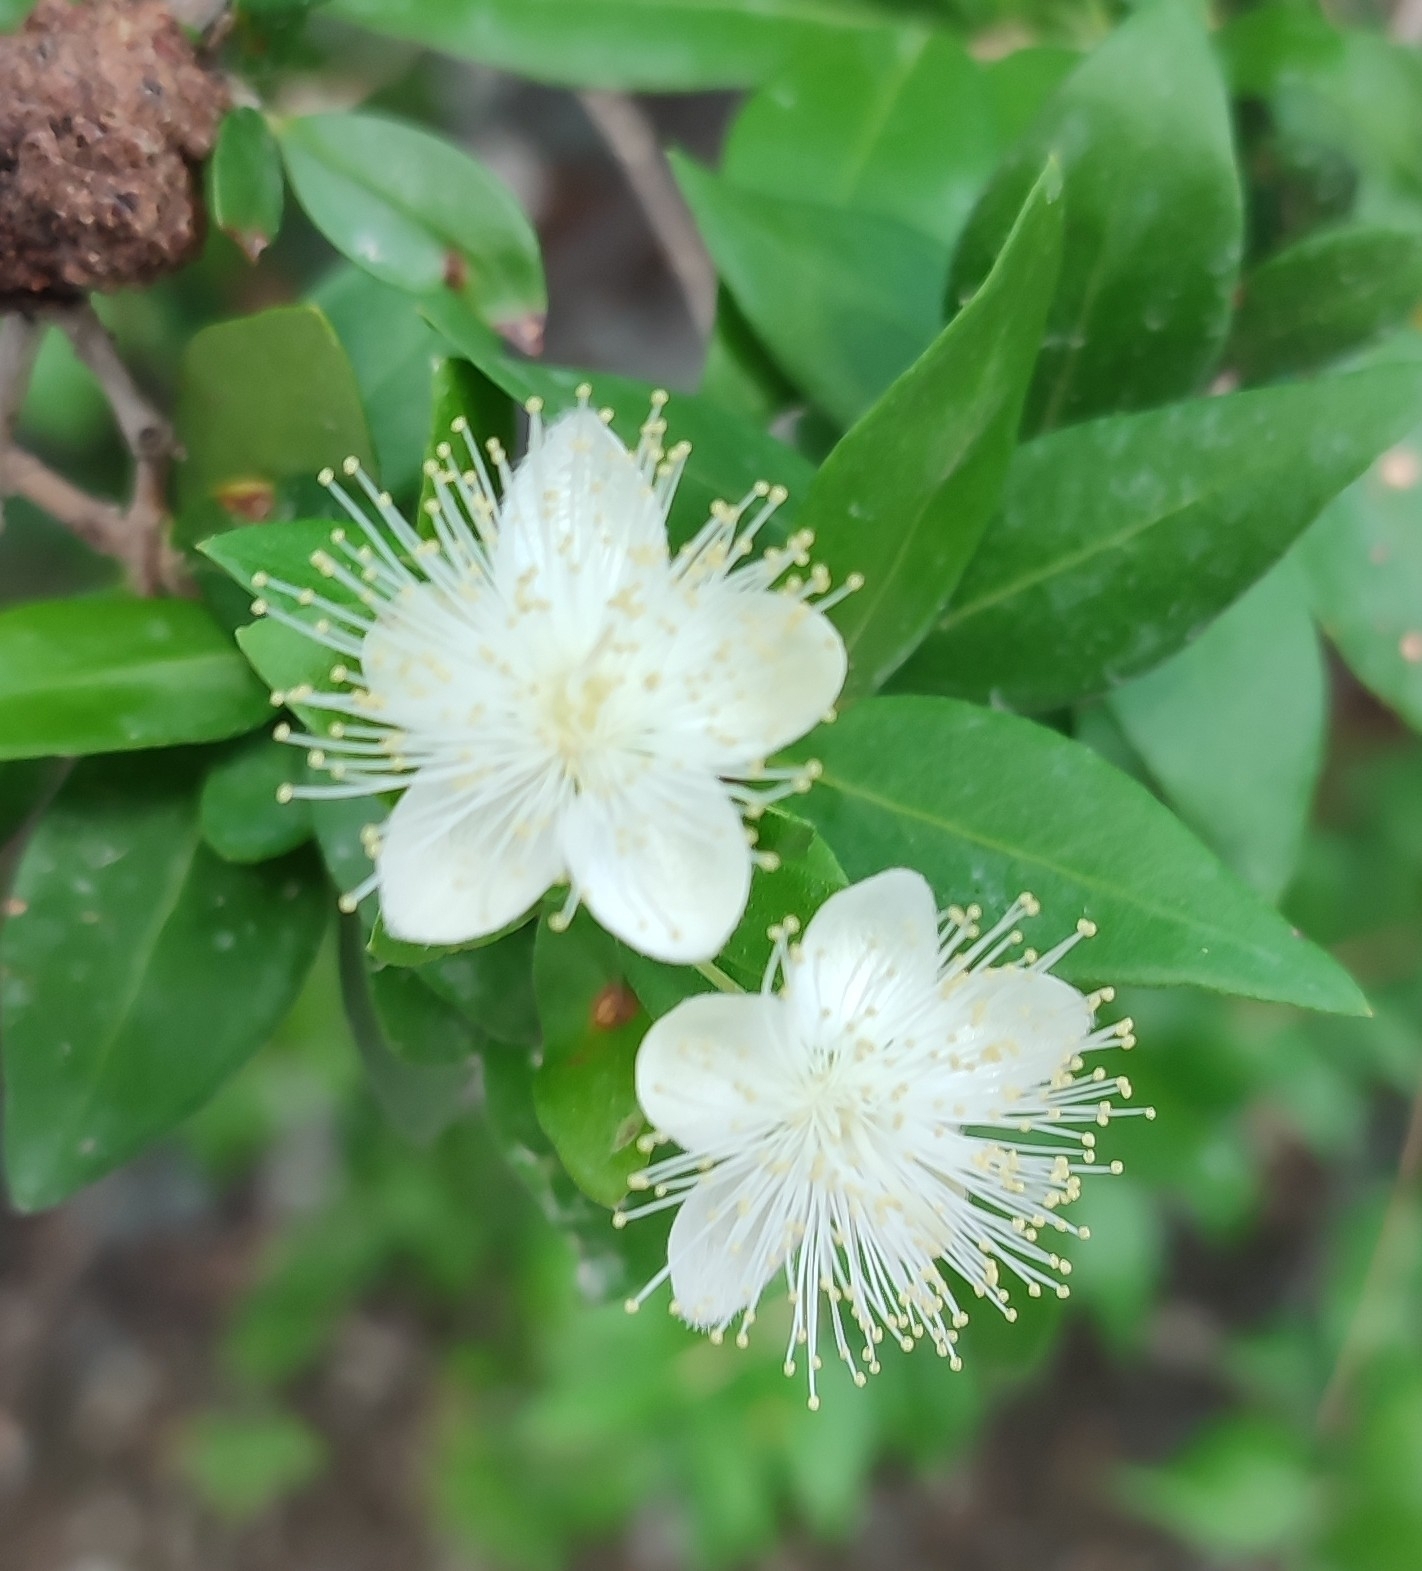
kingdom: Plantae
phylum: Tracheophyta
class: Magnoliopsida
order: Myrtales
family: Myrtaceae
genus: Myrtus
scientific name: Myrtus communis
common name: Myrtle
